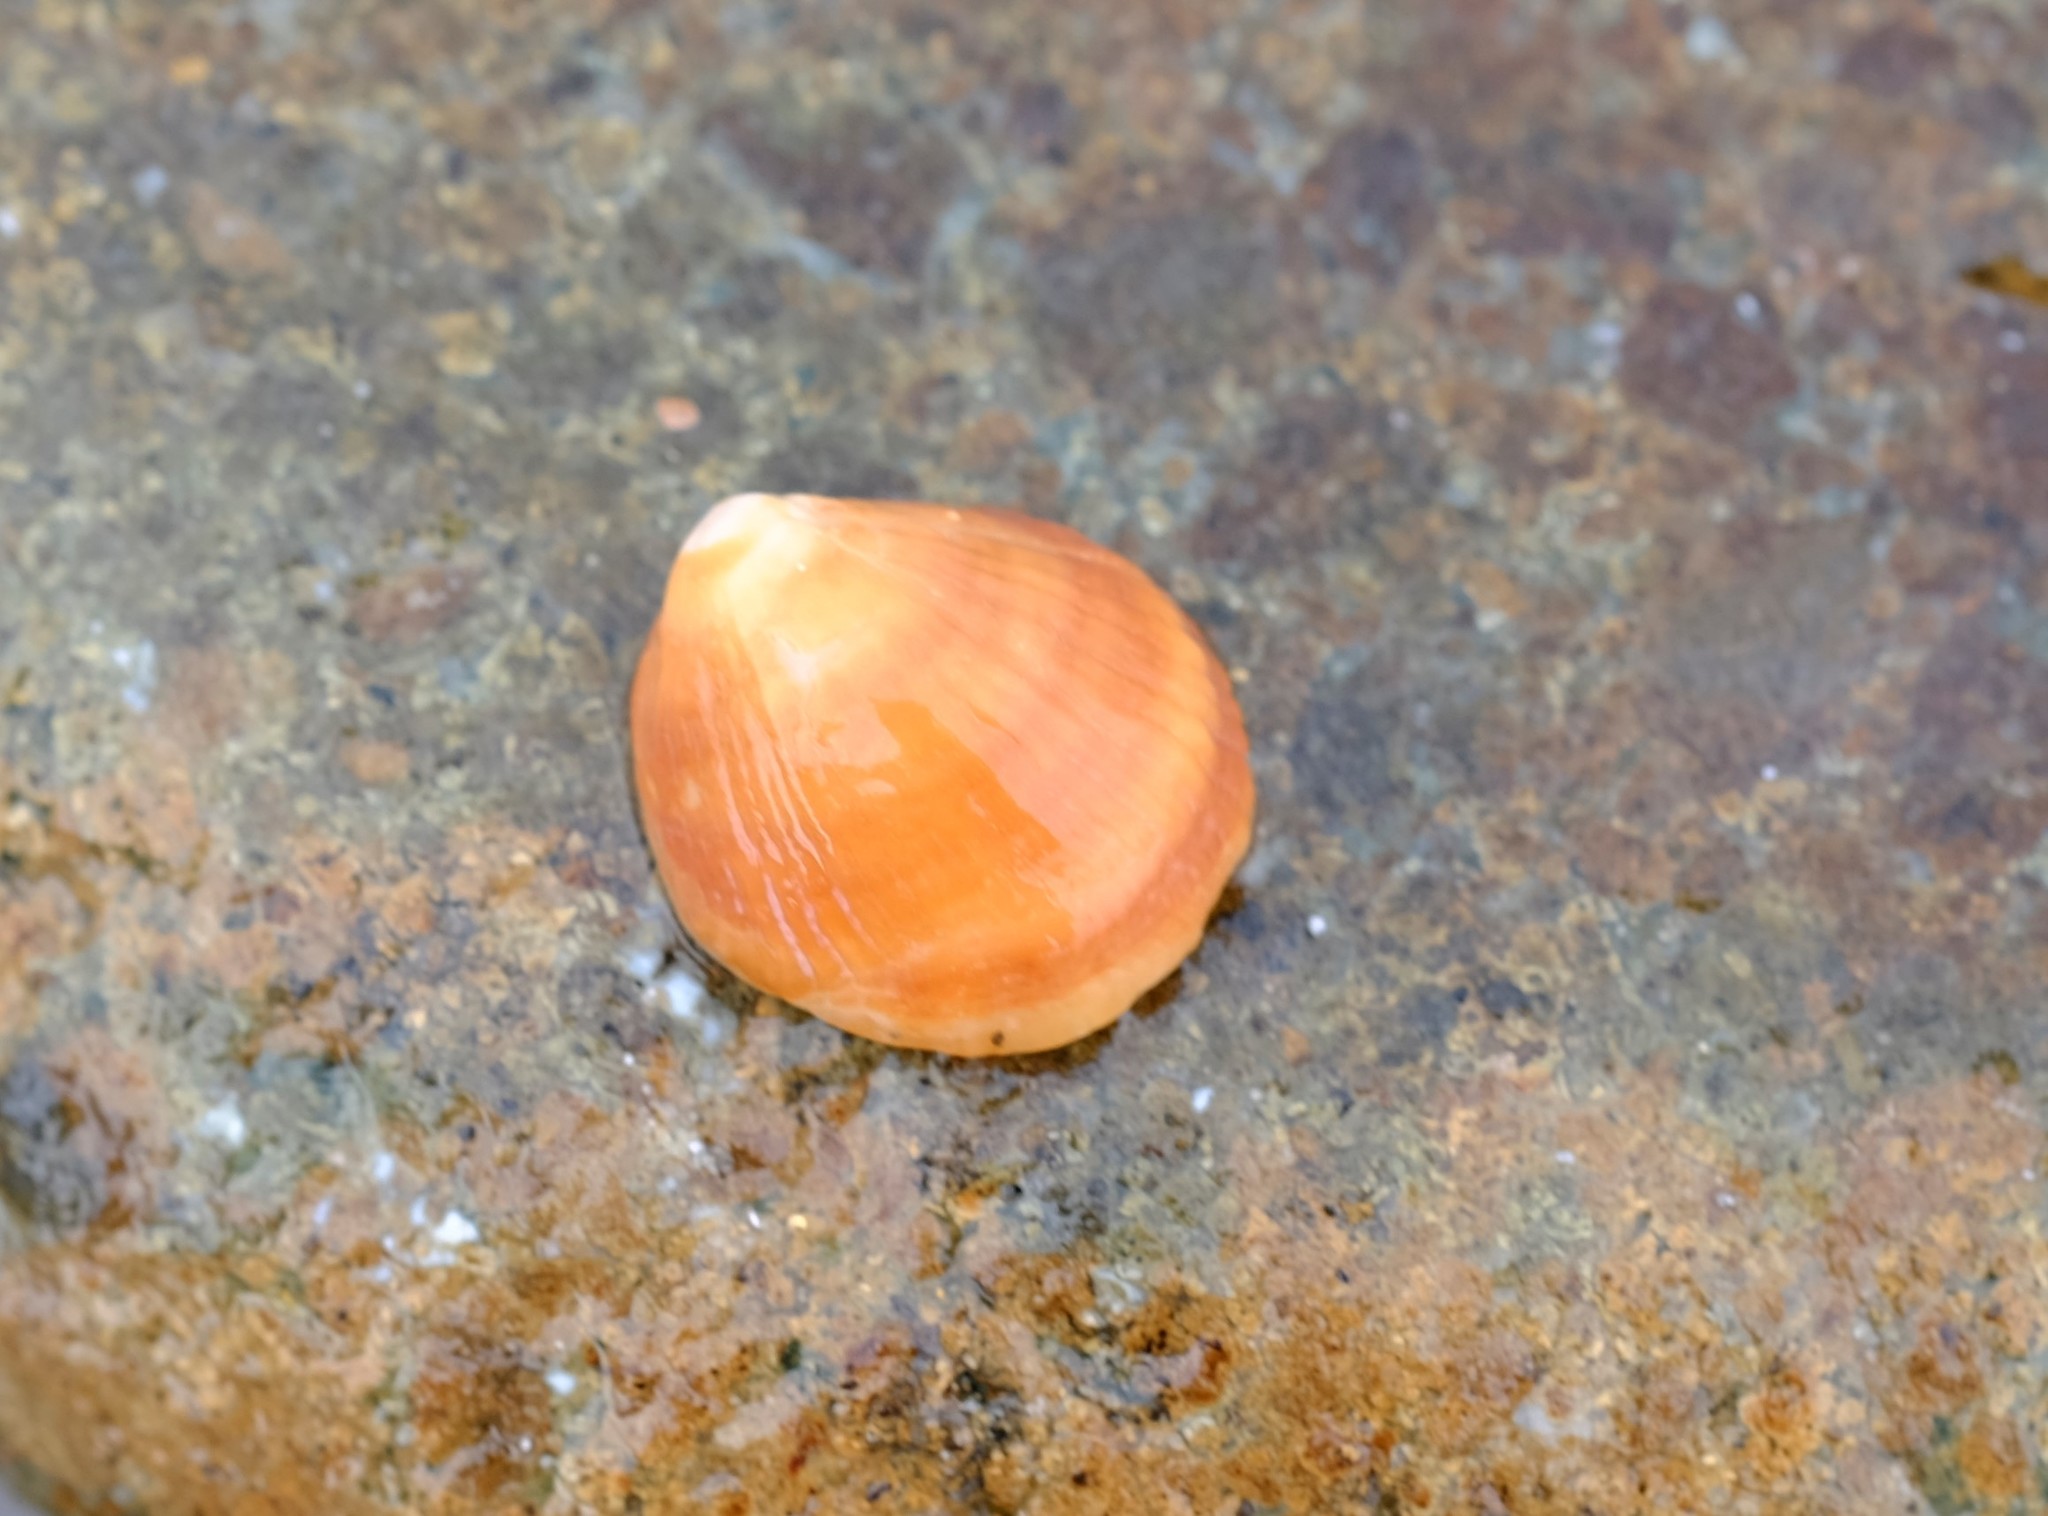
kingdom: Animalia
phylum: Mollusca
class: Gastropoda
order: Littorinimorpha
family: Hipponicidae
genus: Sabia
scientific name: Sabia australis
